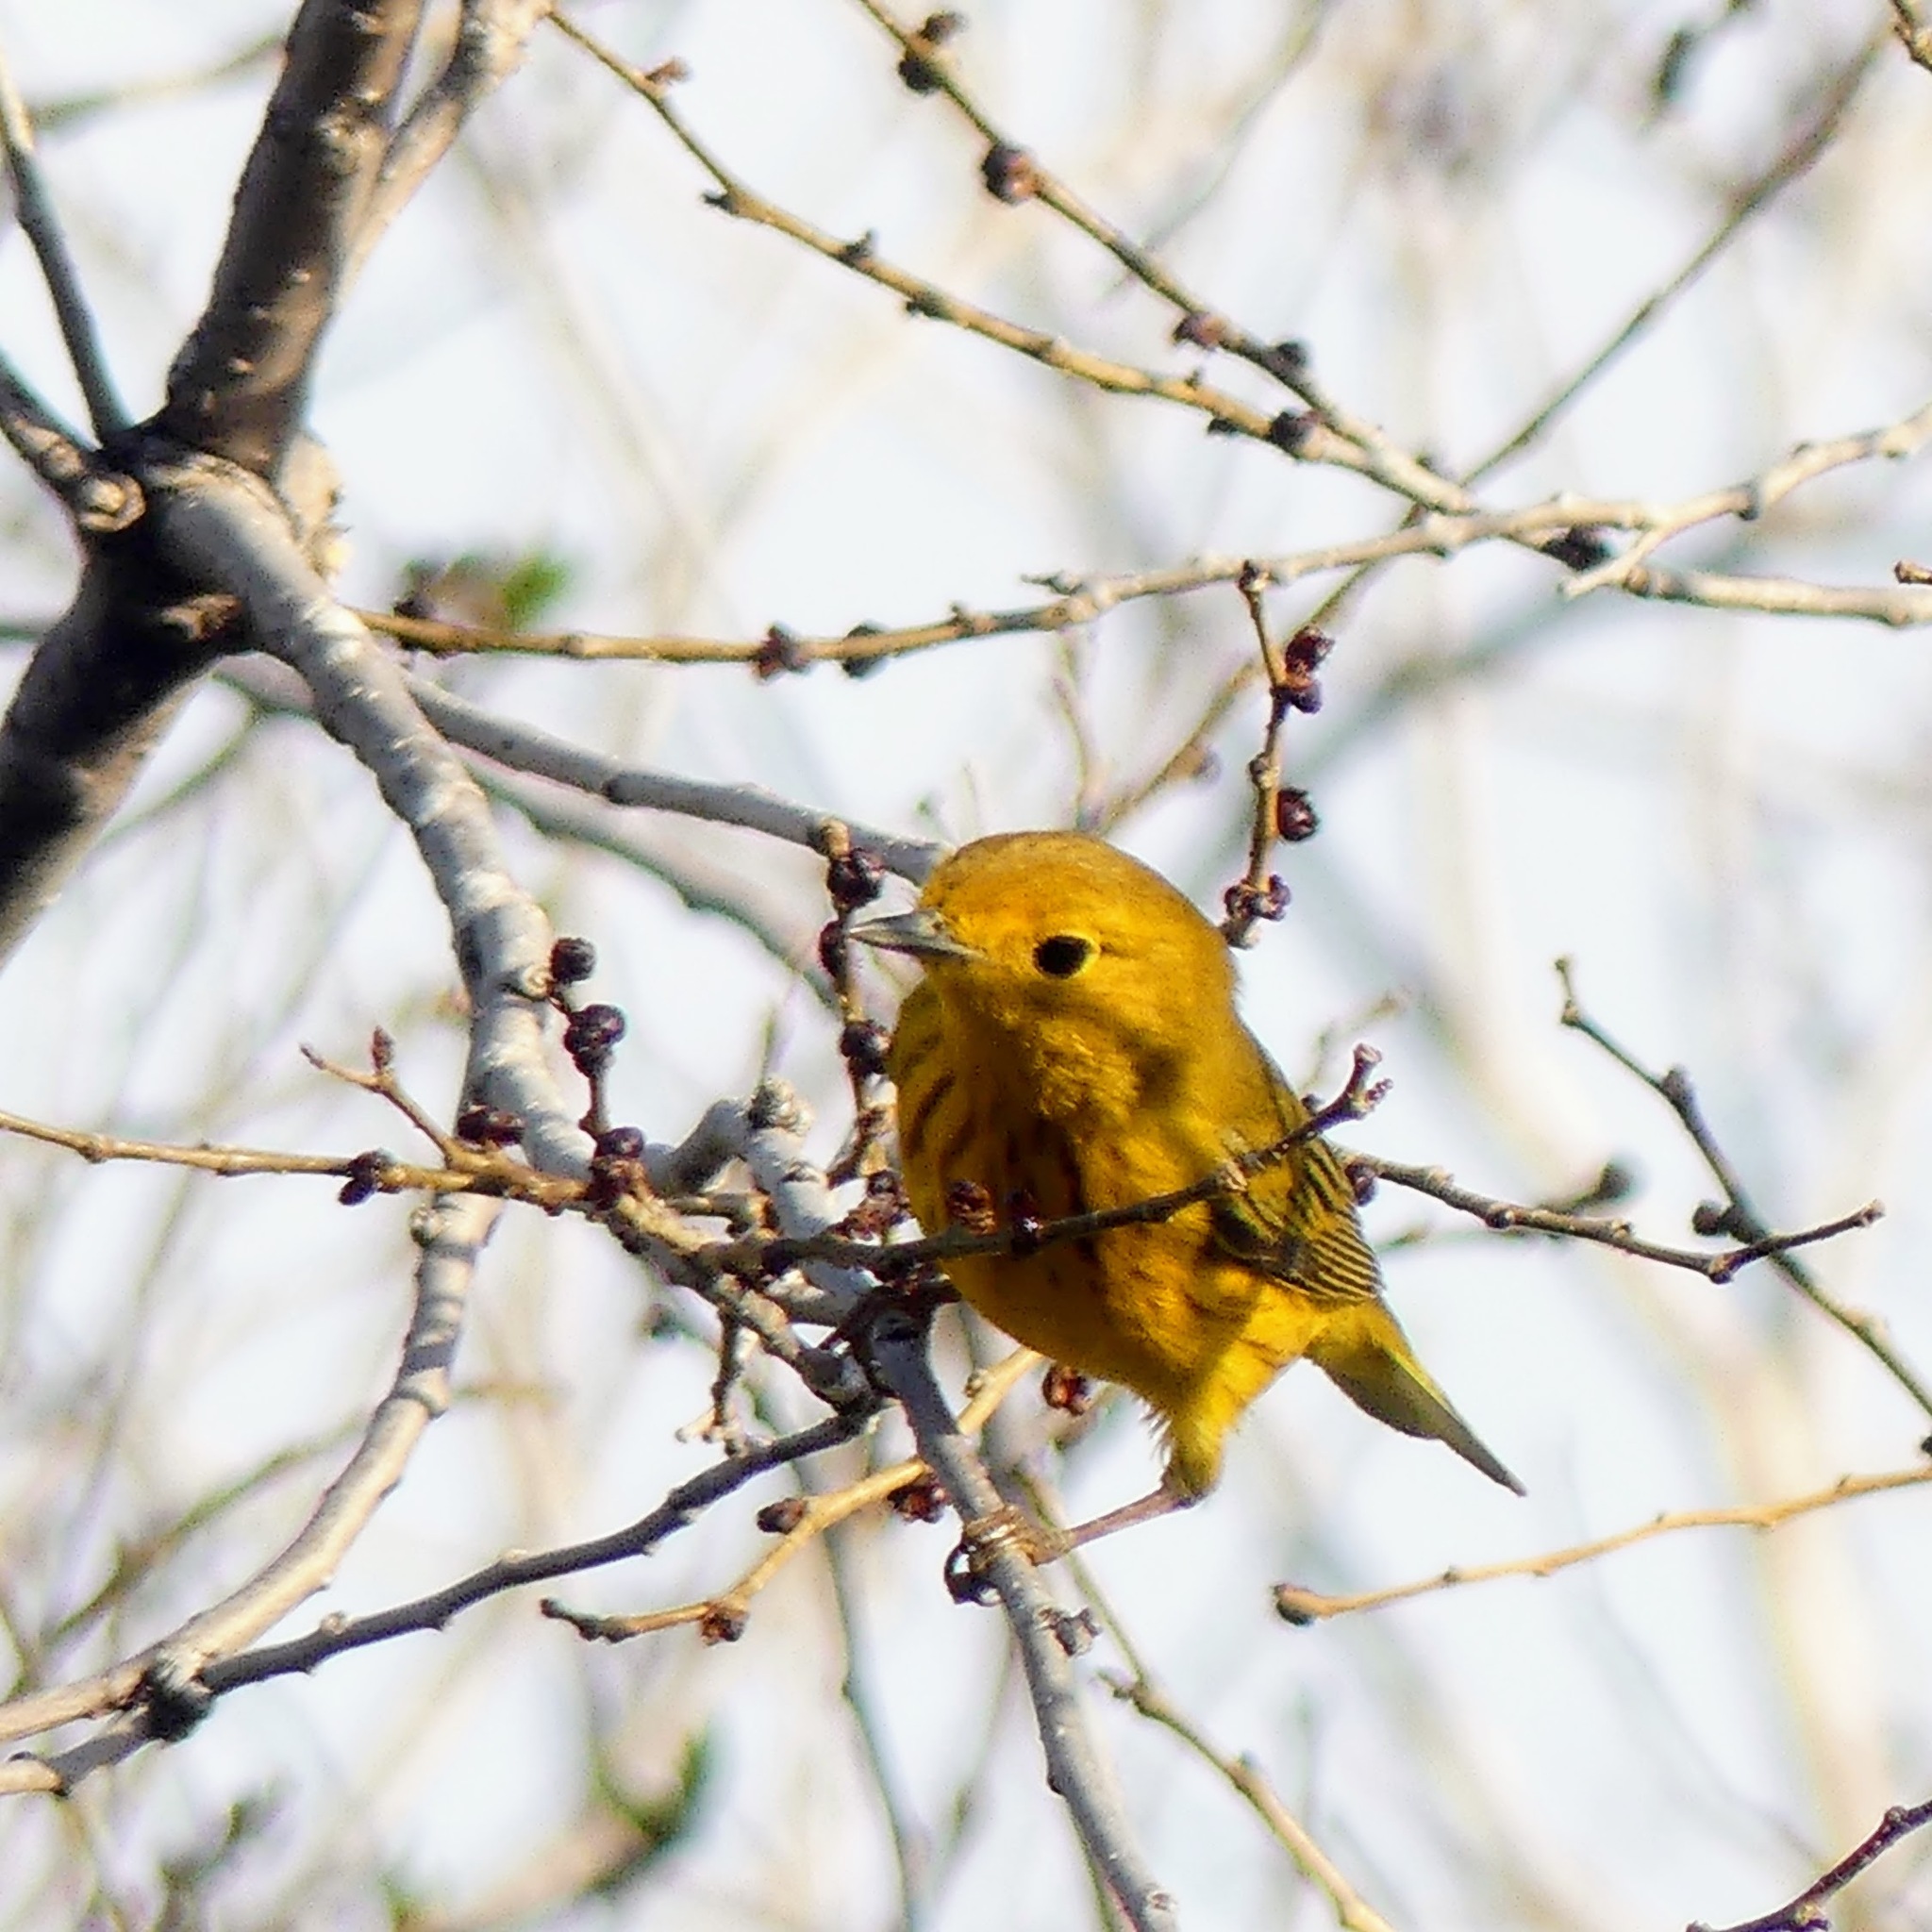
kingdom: Animalia
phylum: Chordata
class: Aves
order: Passeriformes
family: Parulidae
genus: Setophaga
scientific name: Setophaga petechia
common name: Yellow warbler
